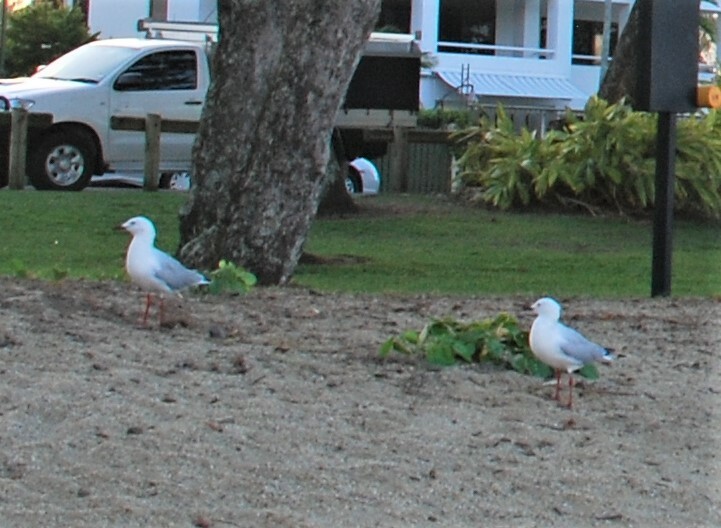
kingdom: Animalia
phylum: Chordata
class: Aves
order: Charadriiformes
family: Laridae
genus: Chroicocephalus
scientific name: Chroicocephalus novaehollandiae
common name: Silver gull
